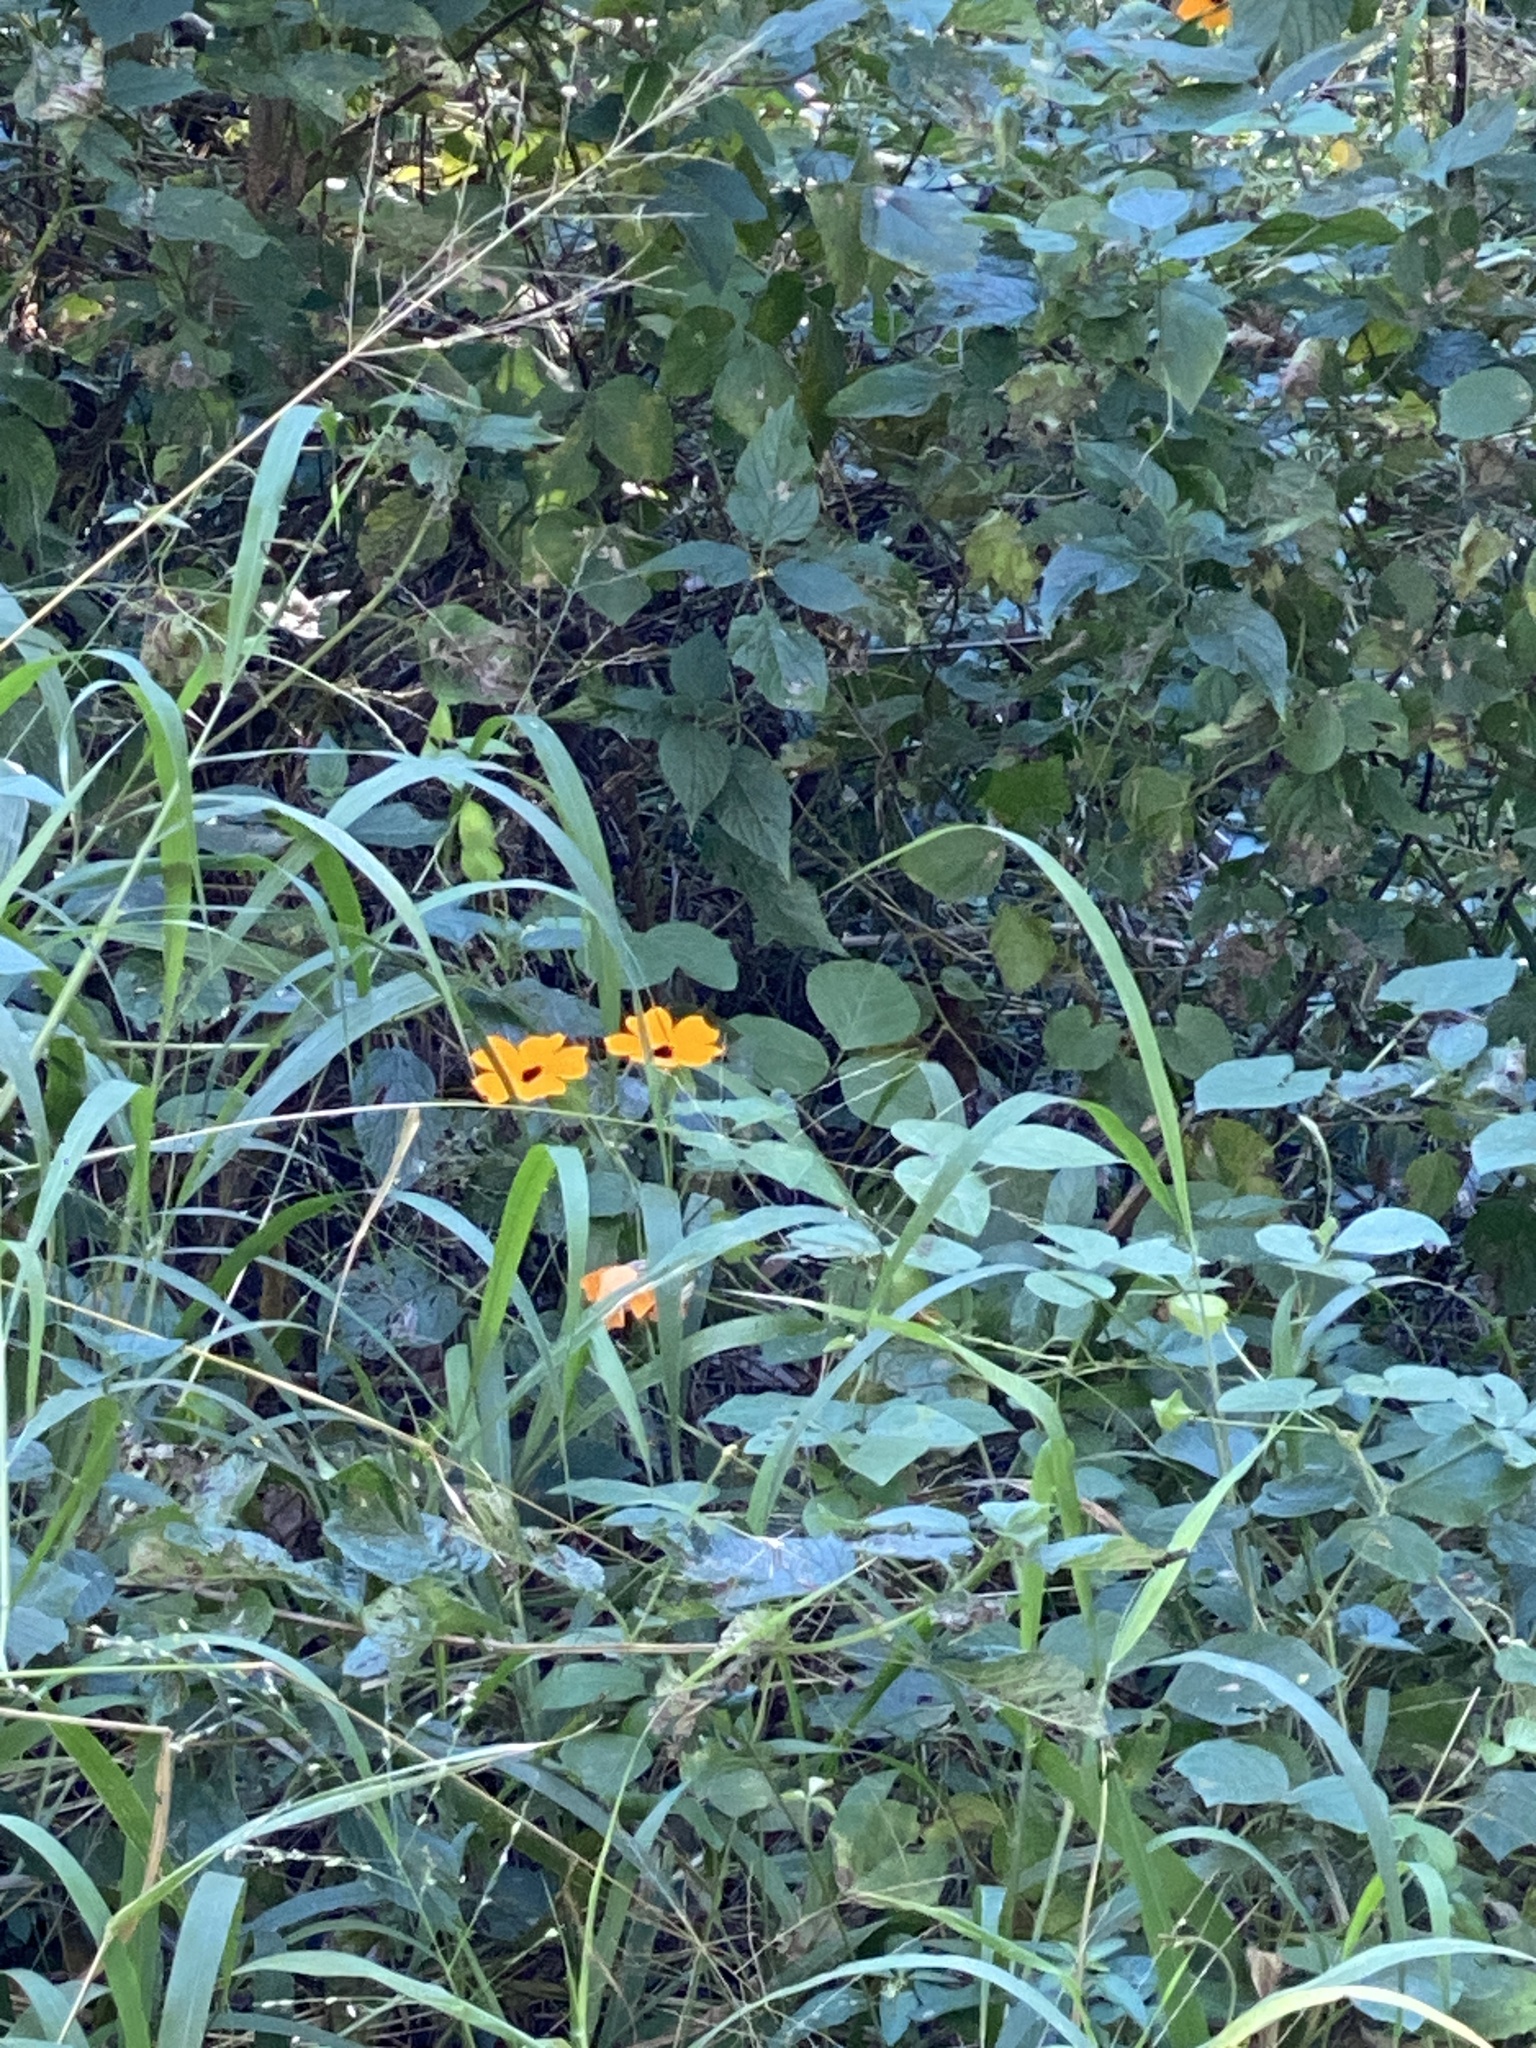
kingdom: Plantae
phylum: Tracheophyta
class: Magnoliopsida
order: Lamiales
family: Acanthaceae
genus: Thunbergia
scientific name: Thunbergia alata
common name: Blackeyed susan vine
